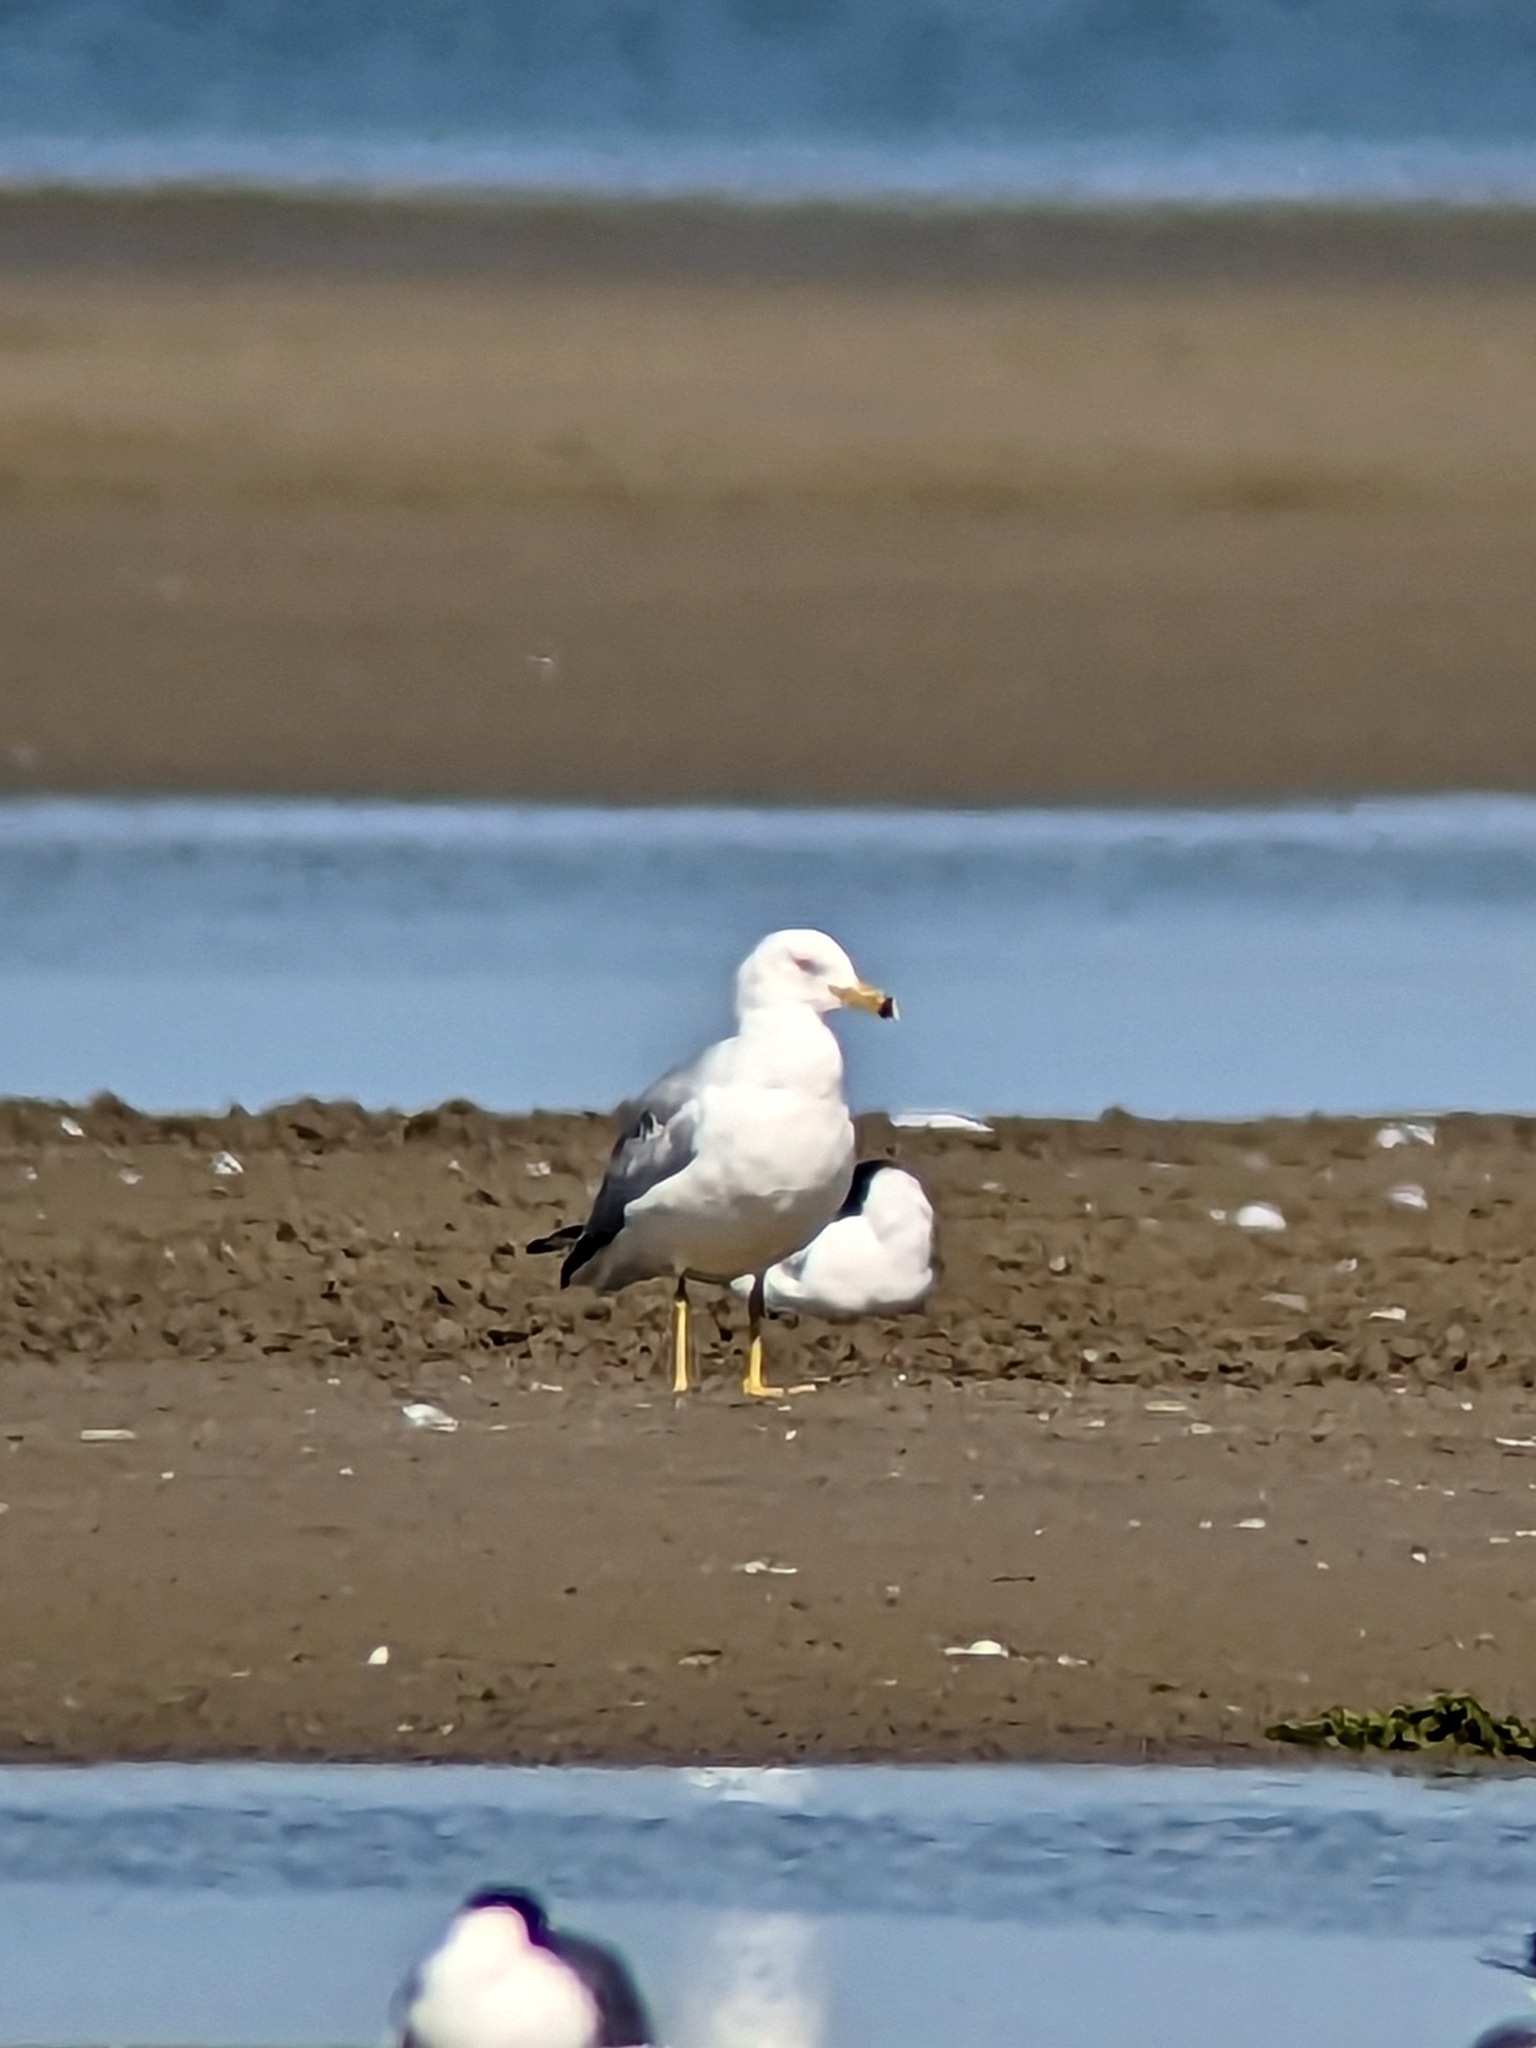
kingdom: Animalia
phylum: Chordata
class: Aves
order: Charadriiformes
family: Laridae
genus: Larus
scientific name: Larus delawarensis
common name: Ring-billed gull
